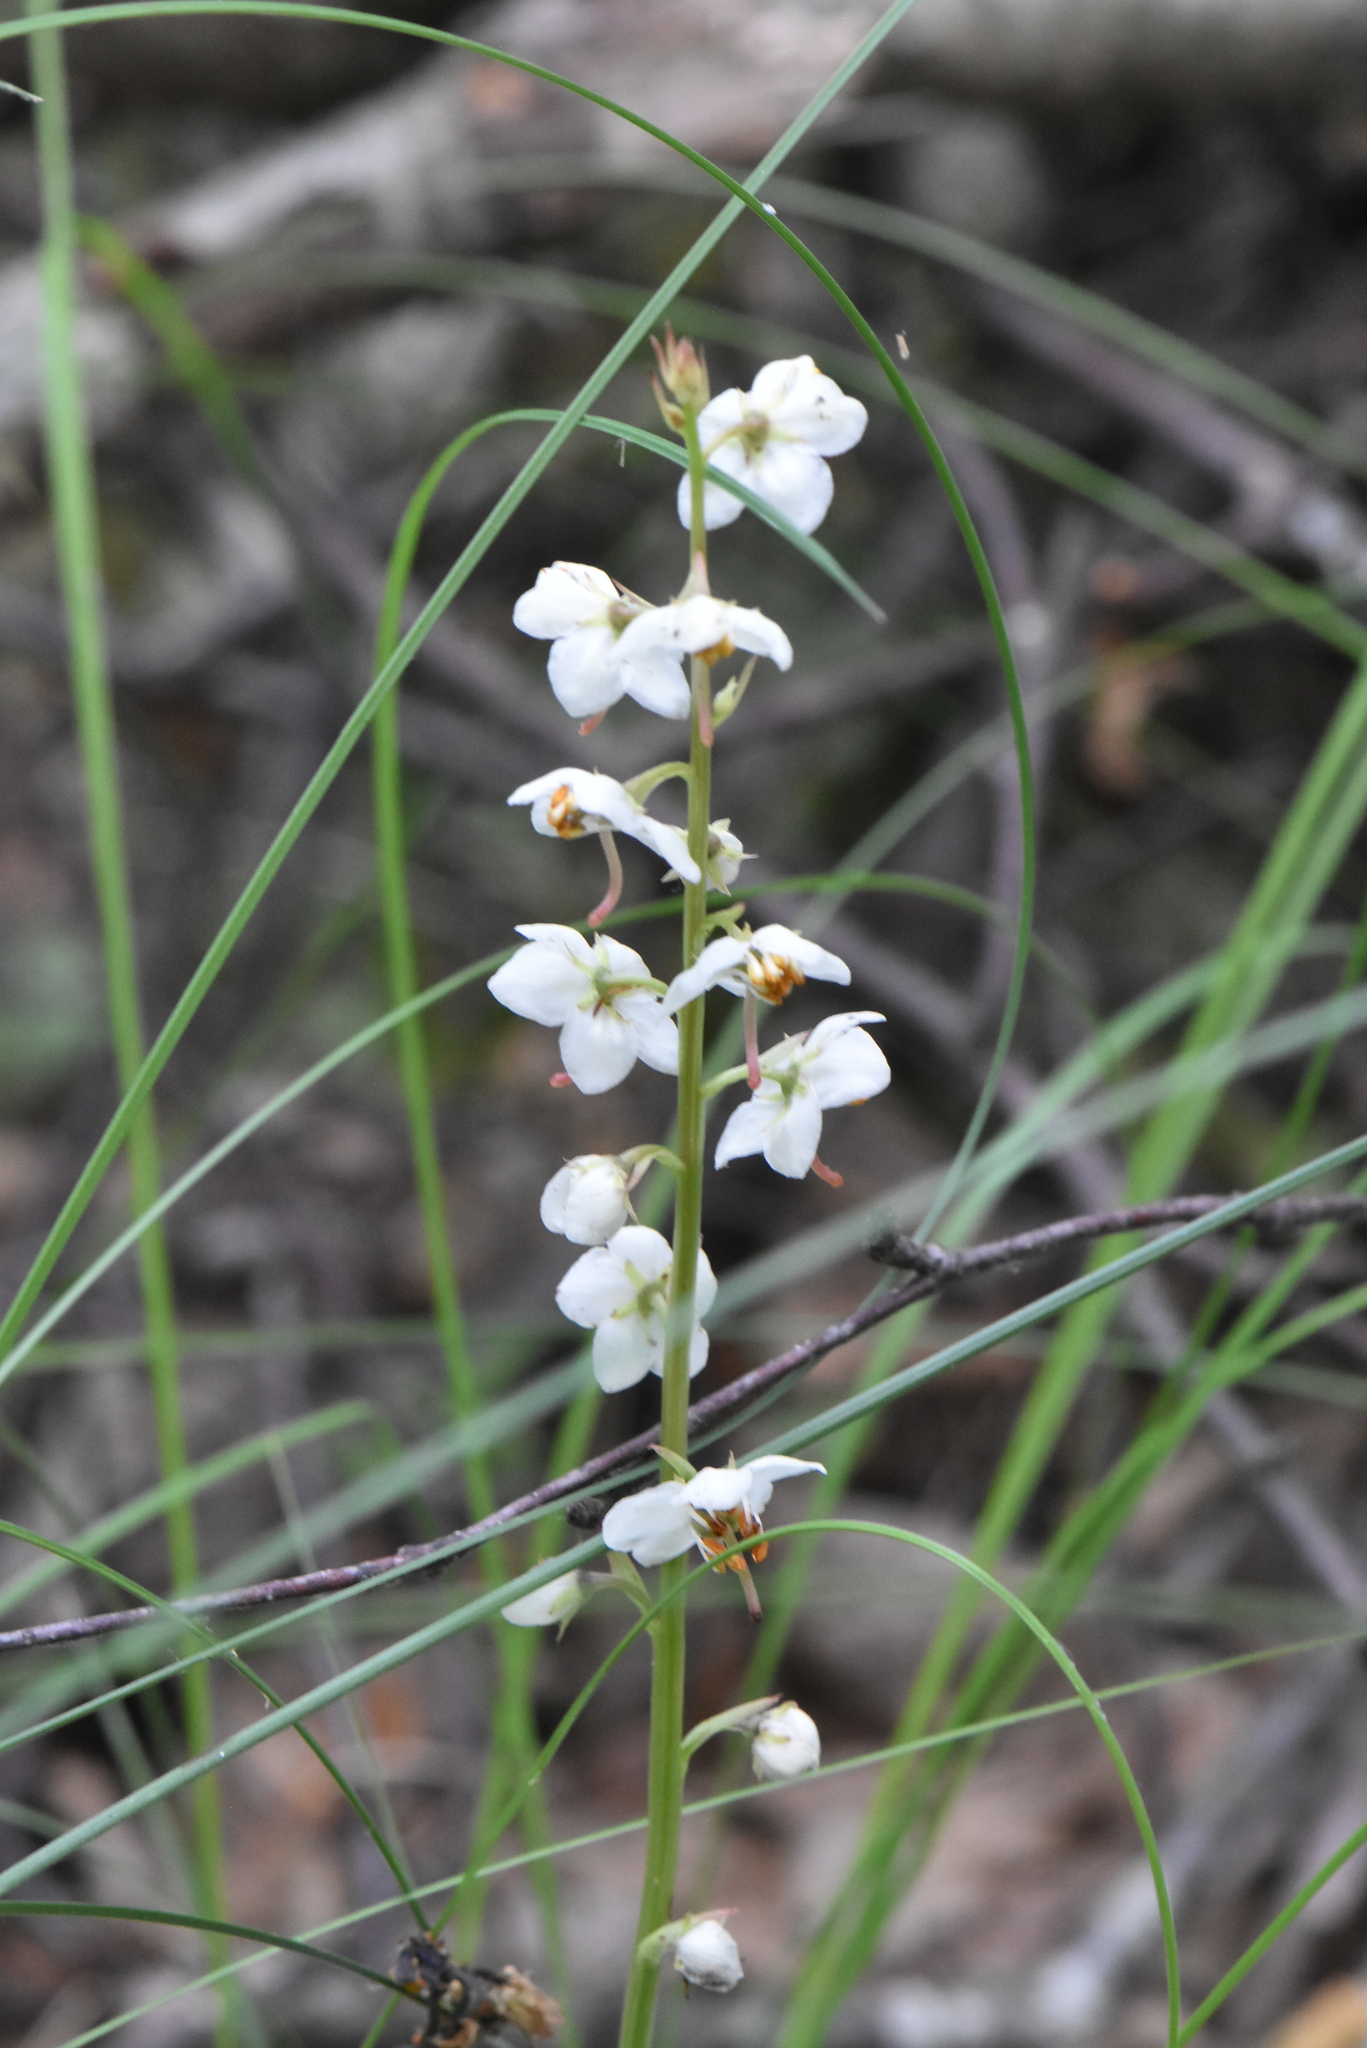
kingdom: Plantae
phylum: Tracheophyta
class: Magnoliopsida
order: Ericales
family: Ericaceae
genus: Pyrola
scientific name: Pyrola rotundifolia
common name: Round-leaved wintergreen
